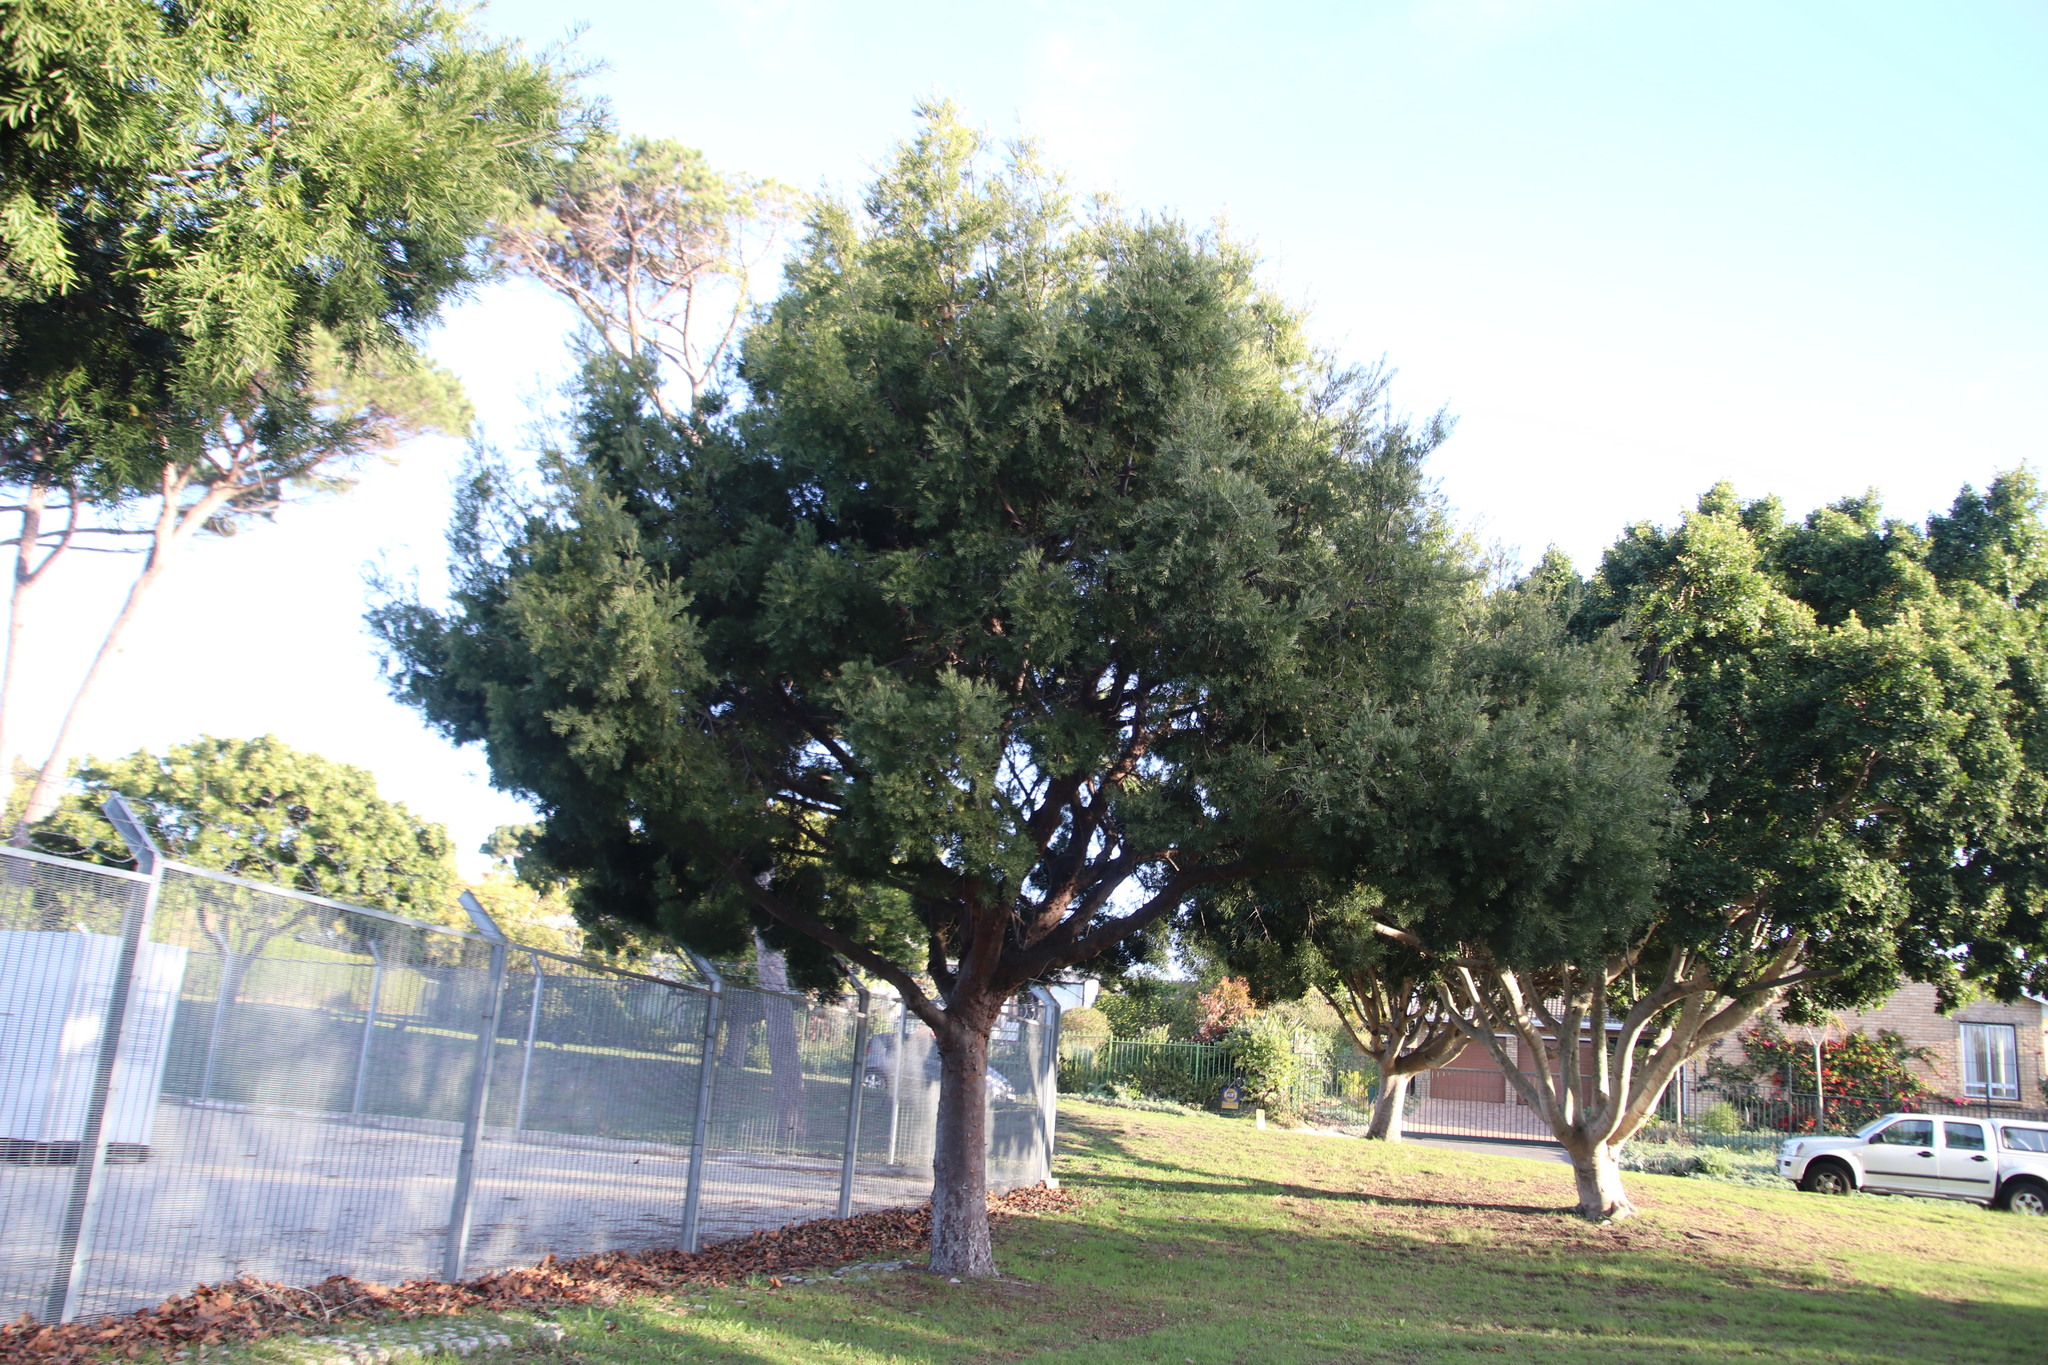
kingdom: Plantae
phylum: Tracheophyta
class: Pinopsida
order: Pinales
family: Podocarpaceae
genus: Afrocarpus
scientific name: Afrocarpus falcatus
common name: Bastard yellowwood
